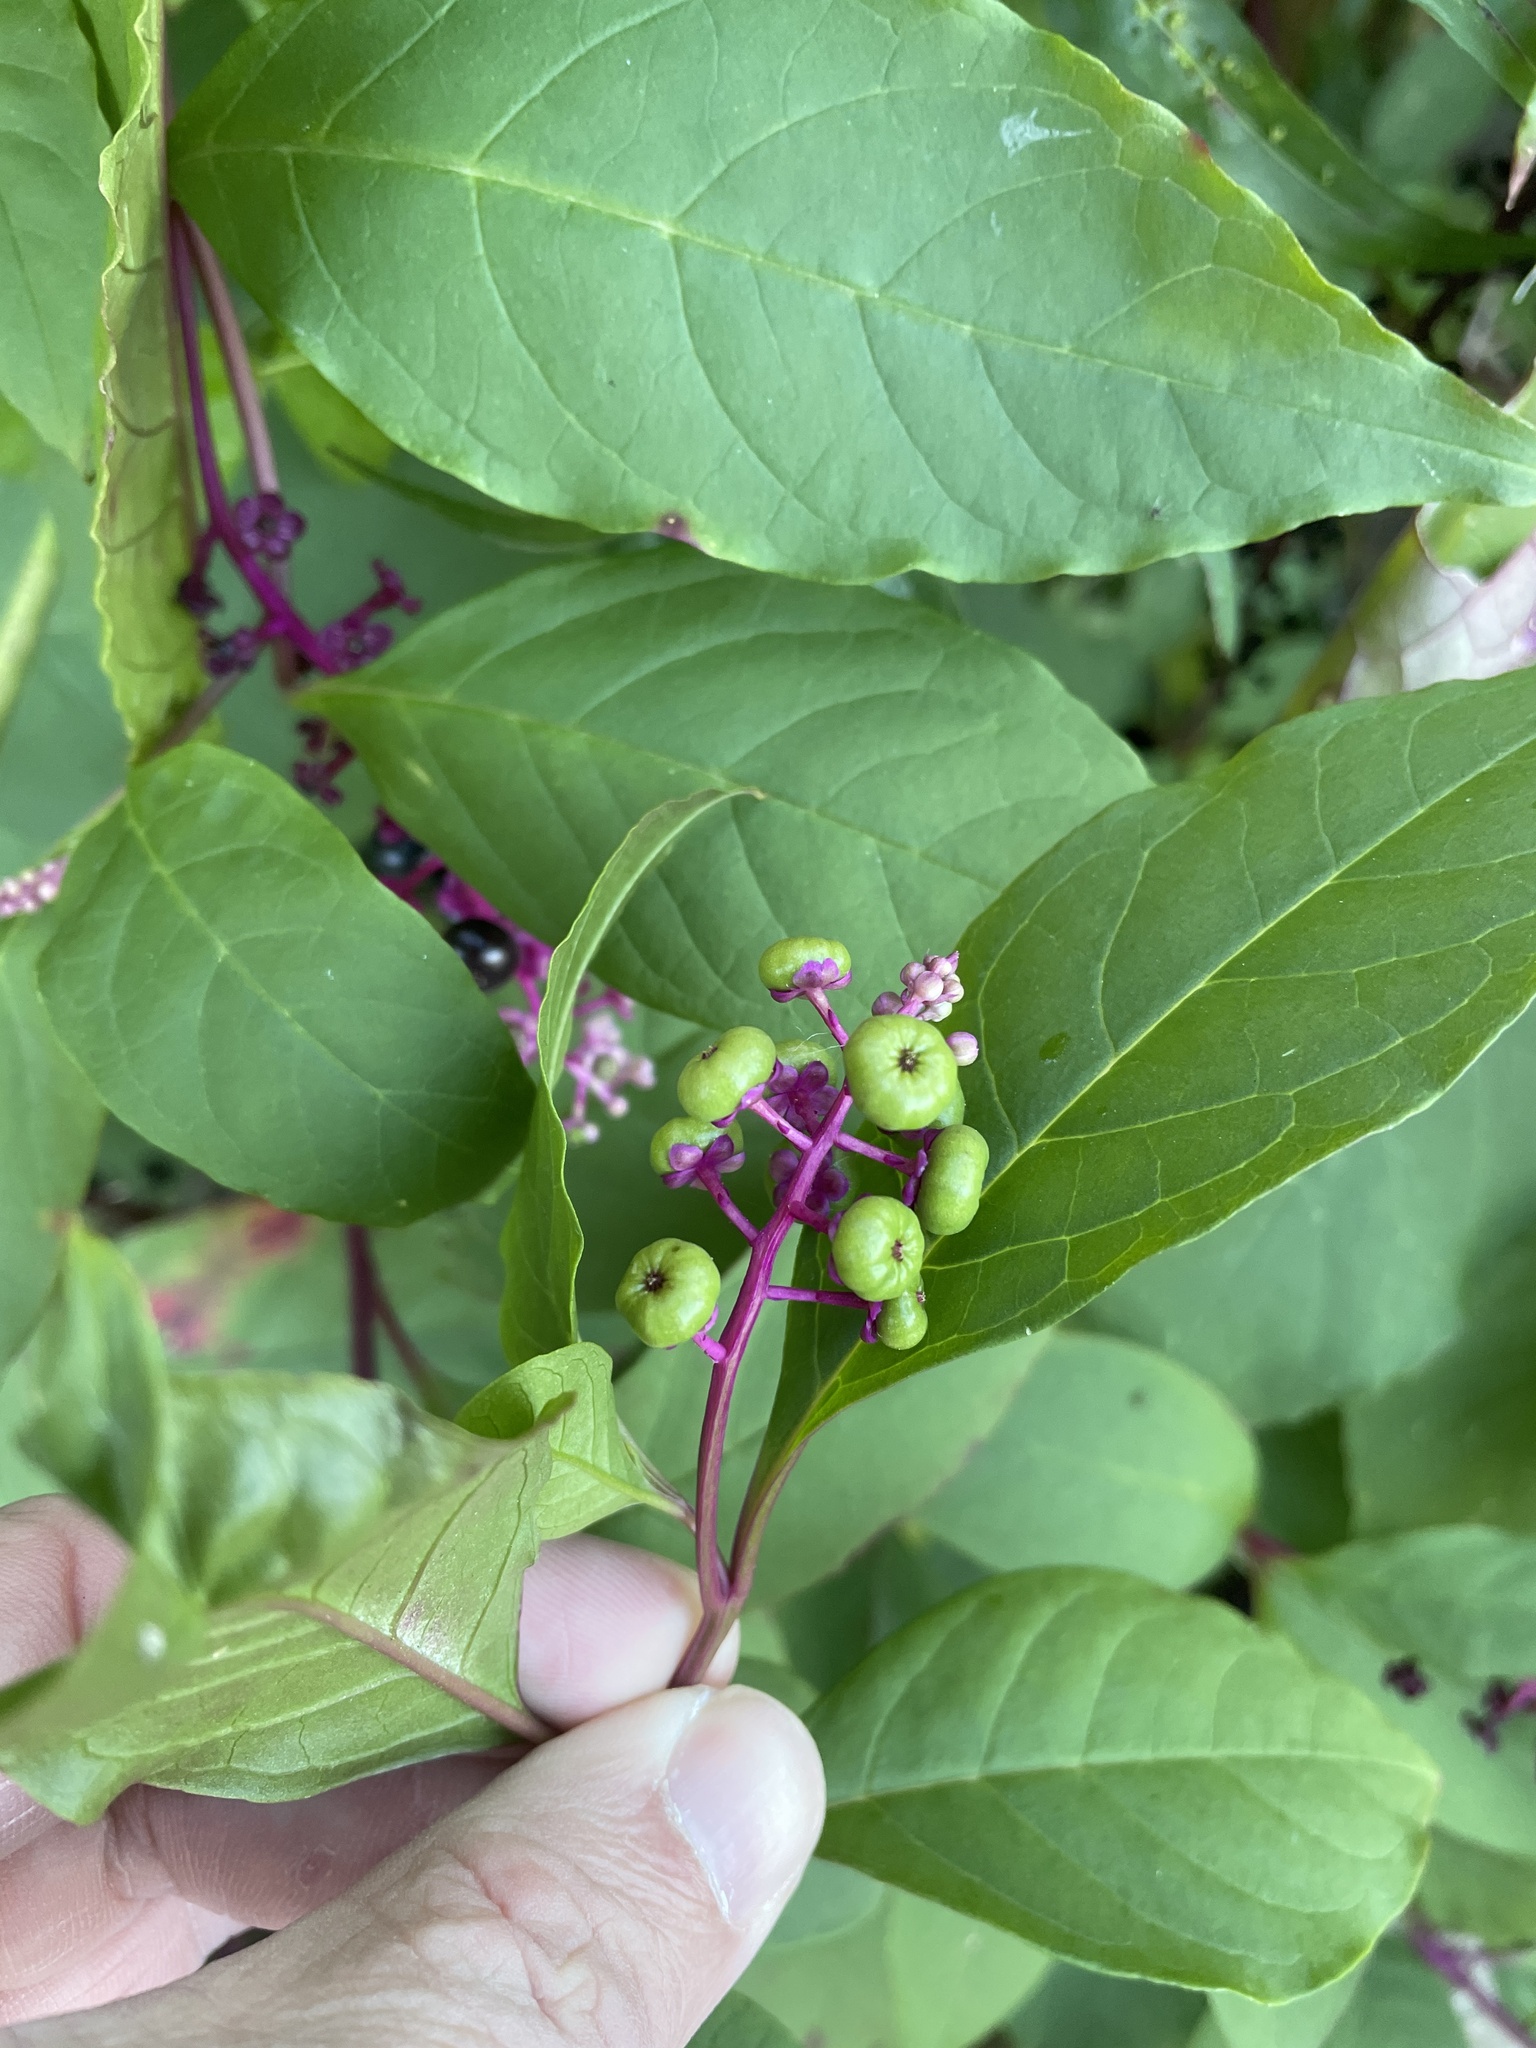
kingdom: Plantae
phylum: Tracheophyta
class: Magnoliopsida
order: Caryophyllales
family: Phytolaccaceae
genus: Phytolacca
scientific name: Phytolacca americana
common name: American pokeweed
